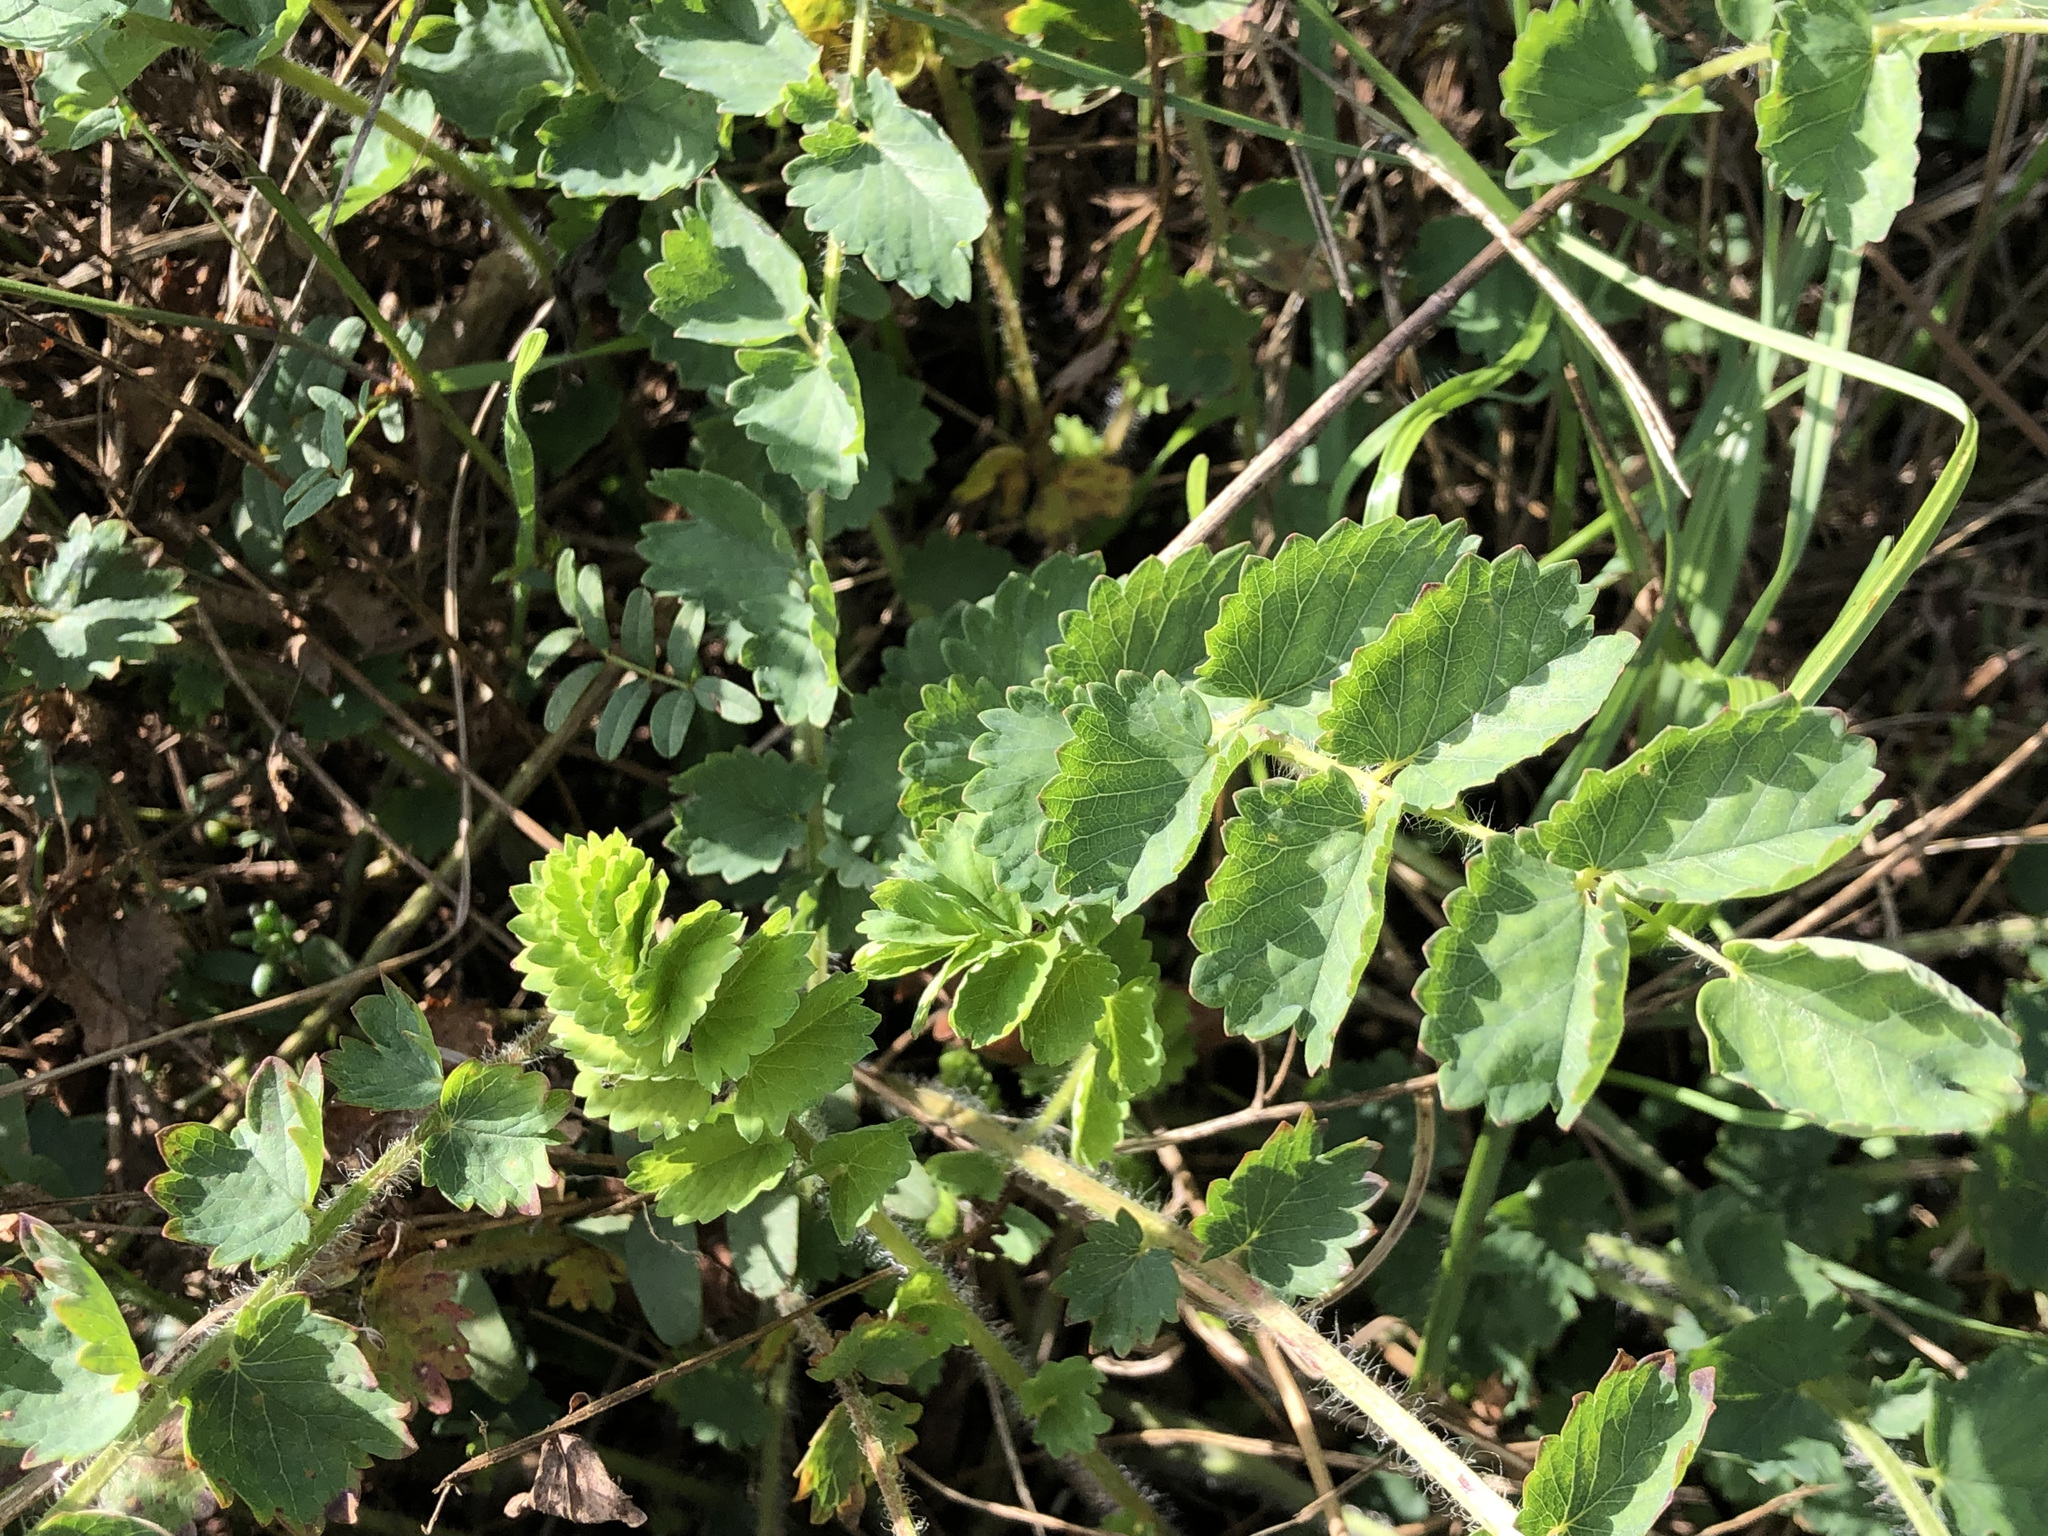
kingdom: Plantae
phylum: Tracheophyta
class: Magnoliopsida
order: Rosales
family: Rosaceae
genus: Poterium
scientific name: Poterium sanguisorba
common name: Salad burnet
